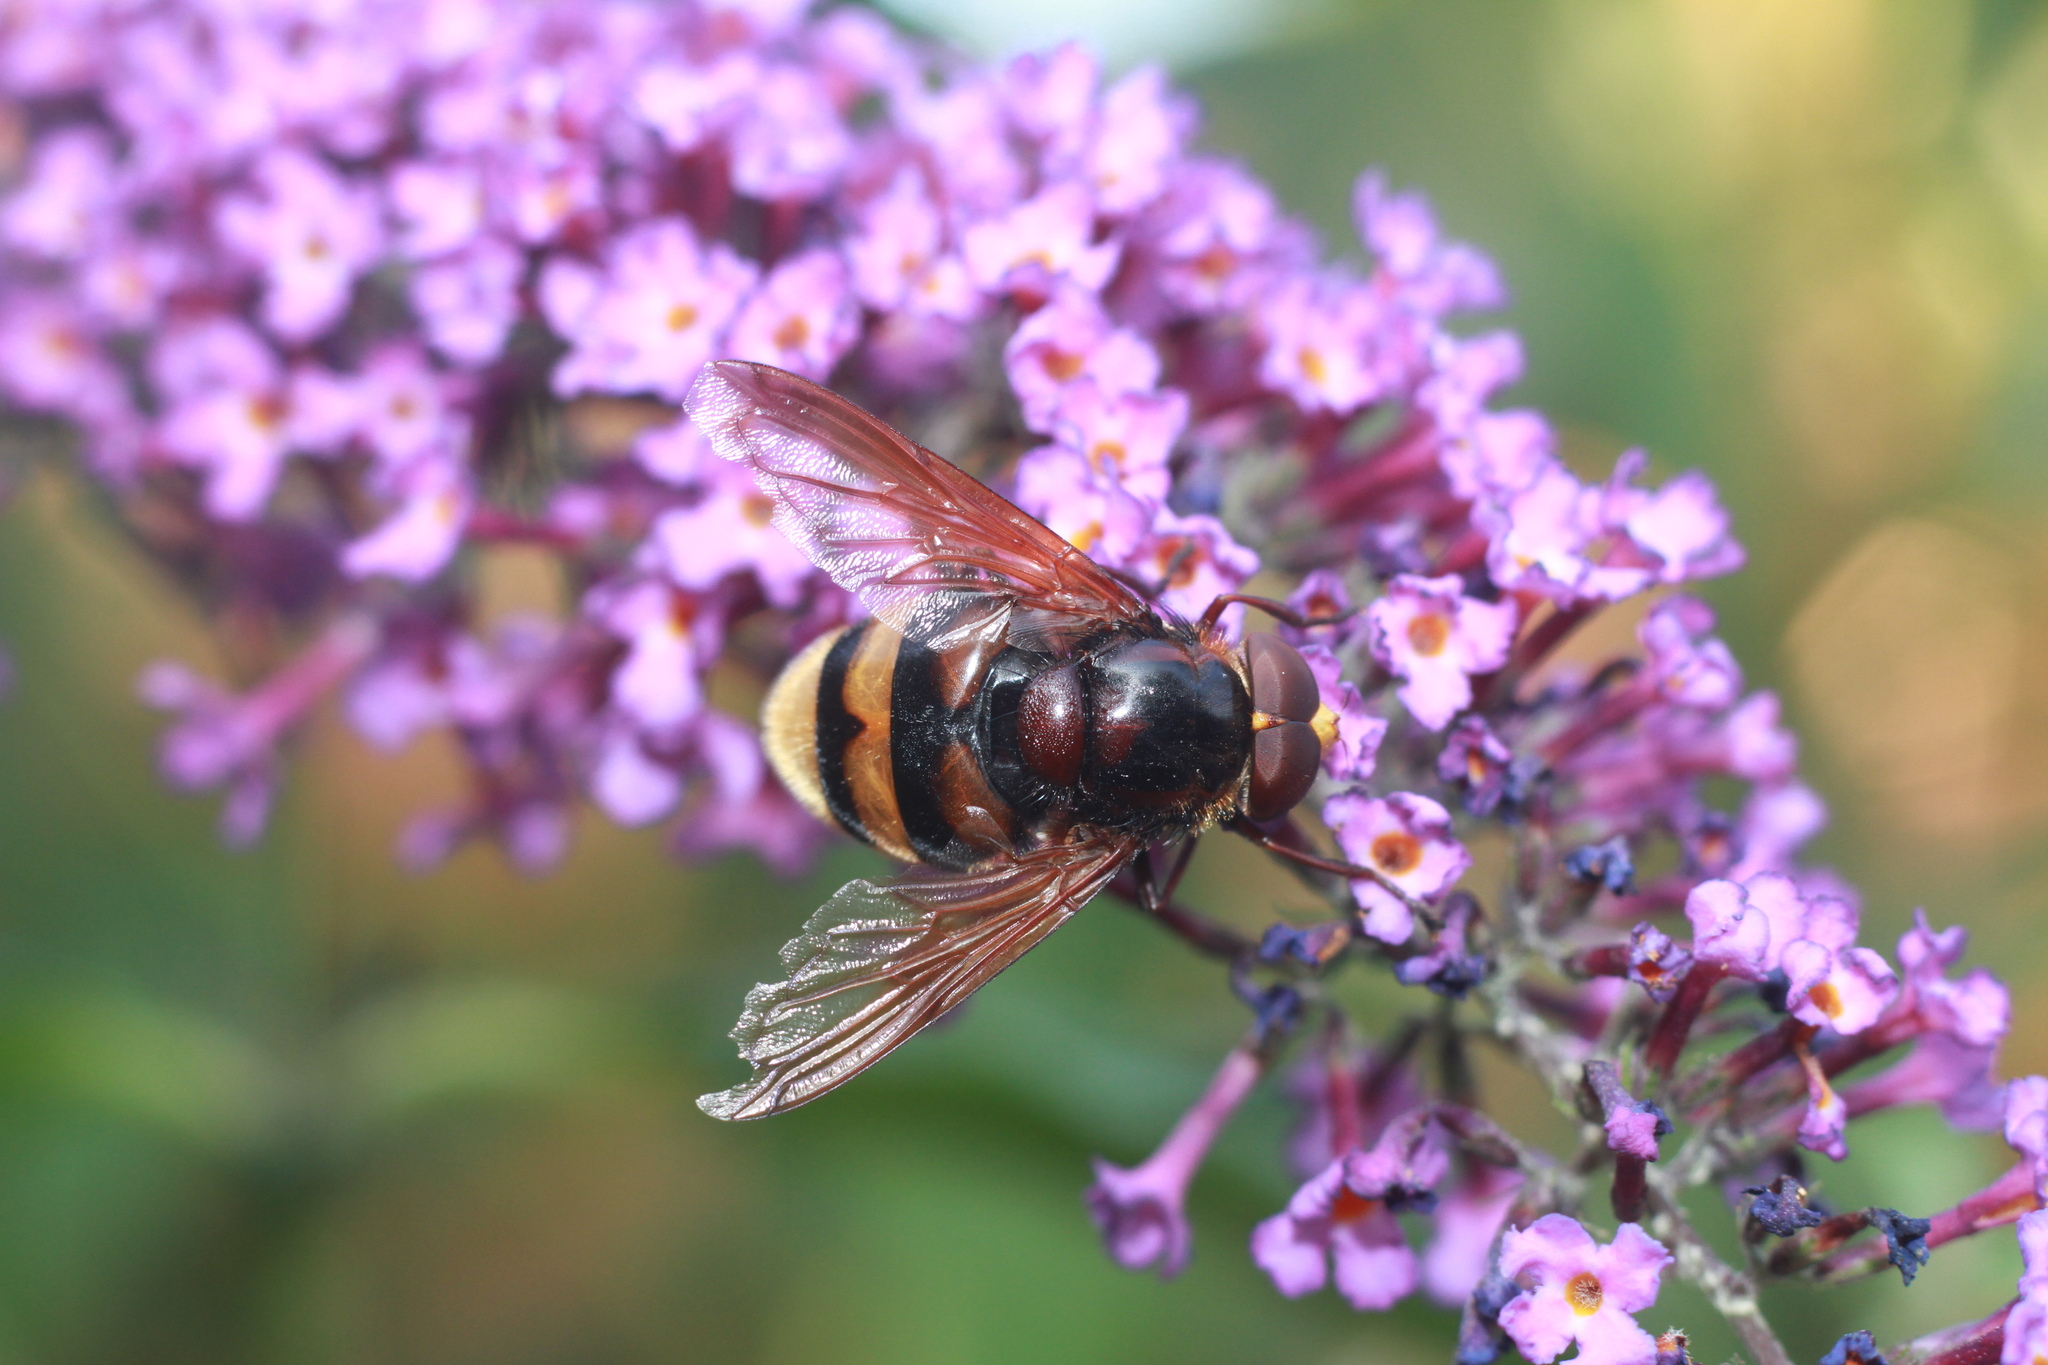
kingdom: Animalia
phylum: Arthropoda
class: Insecta
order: Diptera
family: Syrphidae
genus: Volucella
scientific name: Volucella zonaria
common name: Hornet hoverfly
